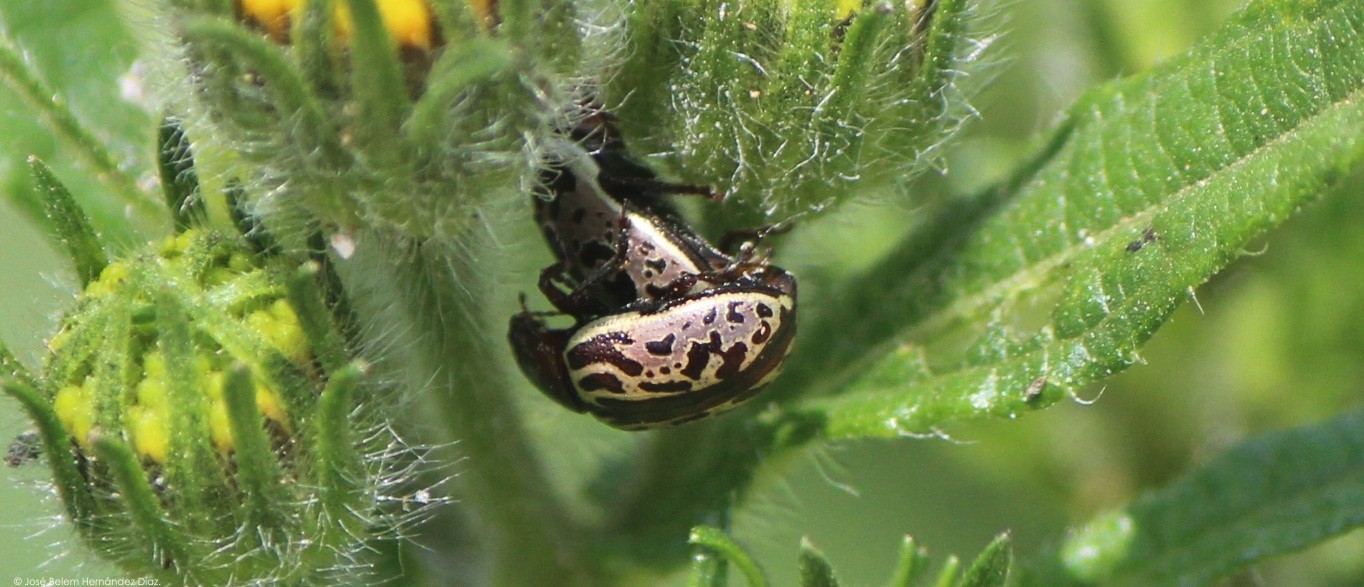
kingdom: Animalia
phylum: Arthropoda
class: Insecta
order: Coleoptera
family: Chrysomelidae
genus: Calligrapha
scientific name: Calligrapha
